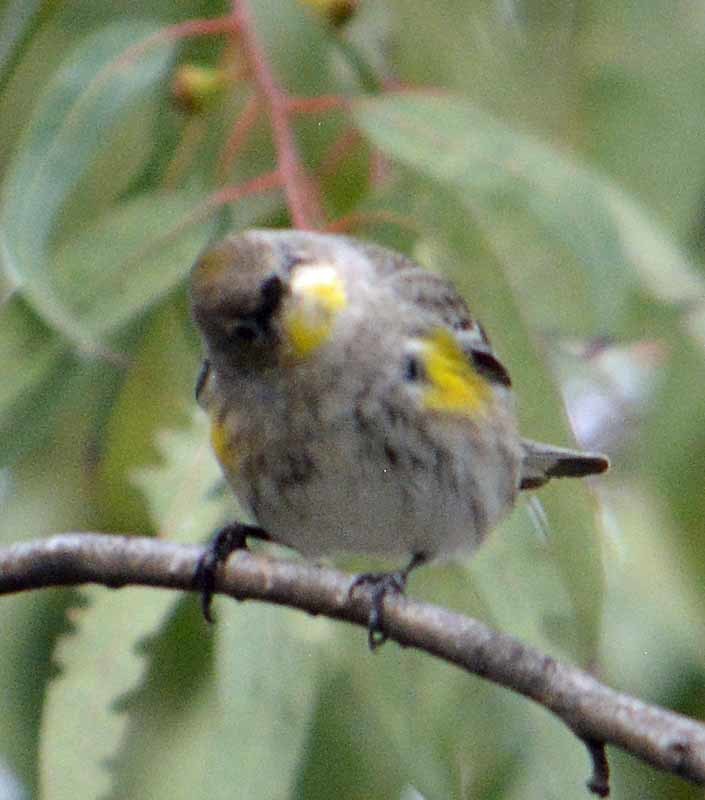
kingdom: Animalia
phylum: Chordata
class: Aves
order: Passeriformes
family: Parulidae
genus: Setophaga
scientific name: Setophaga coronata
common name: Myrtle warbler
